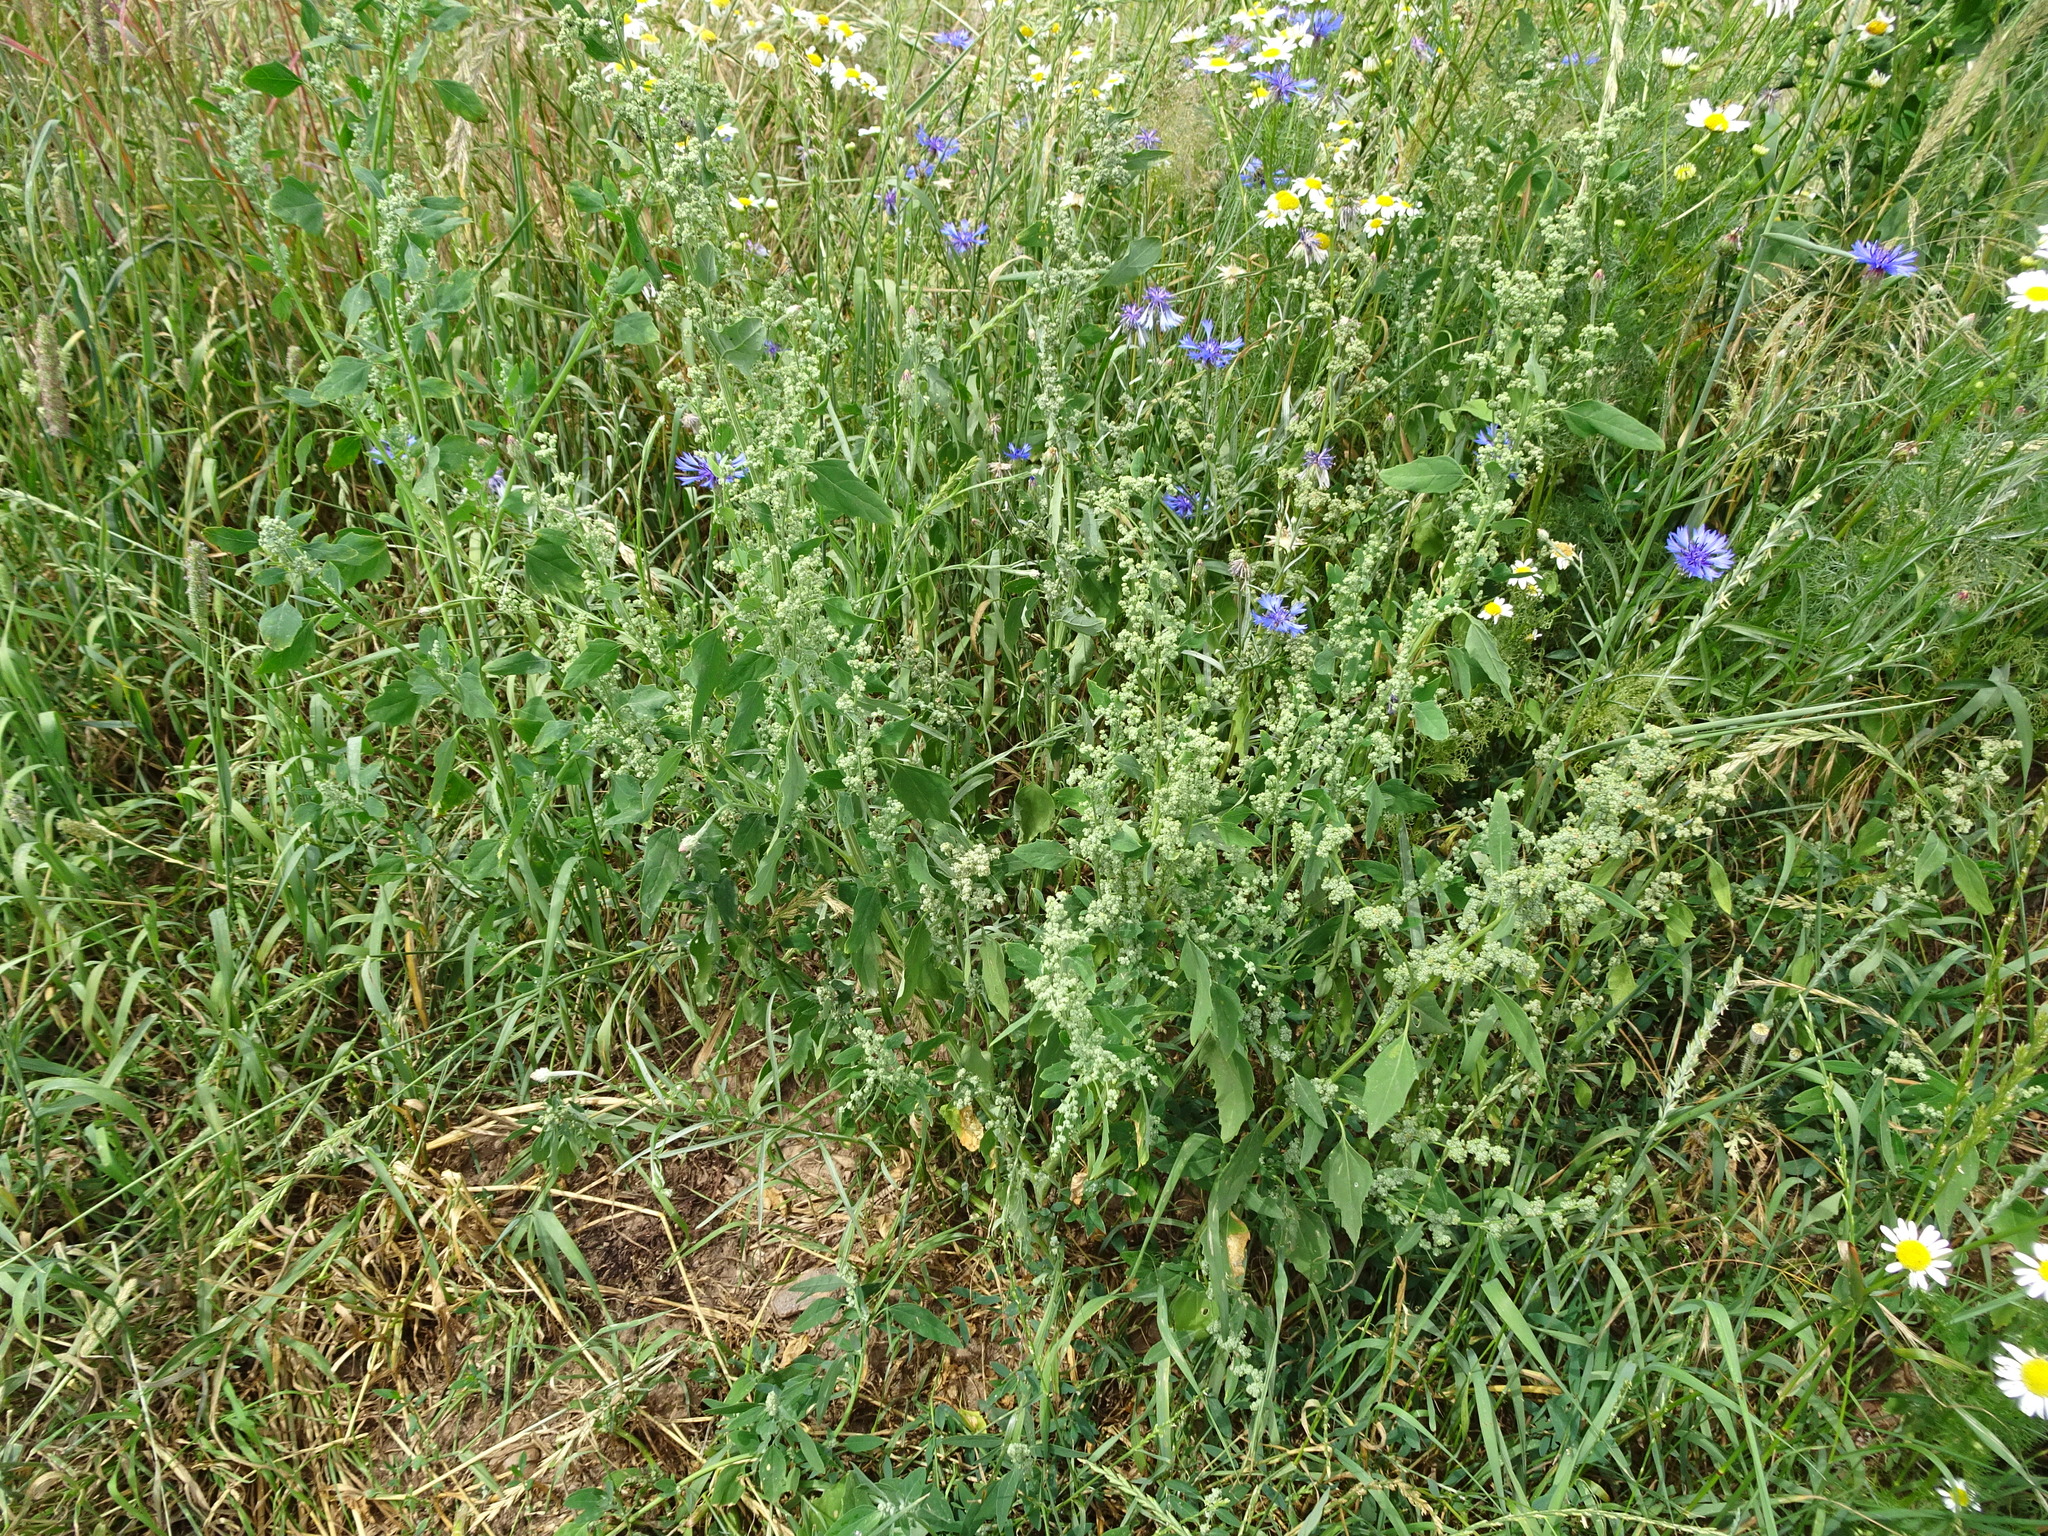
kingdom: Plantae
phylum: Tracheophyta
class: Magnoliopsida
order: Caryophyllales
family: Amaranthaceae
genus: Chenopodium
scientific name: Chenopodium album
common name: Fat-hen
